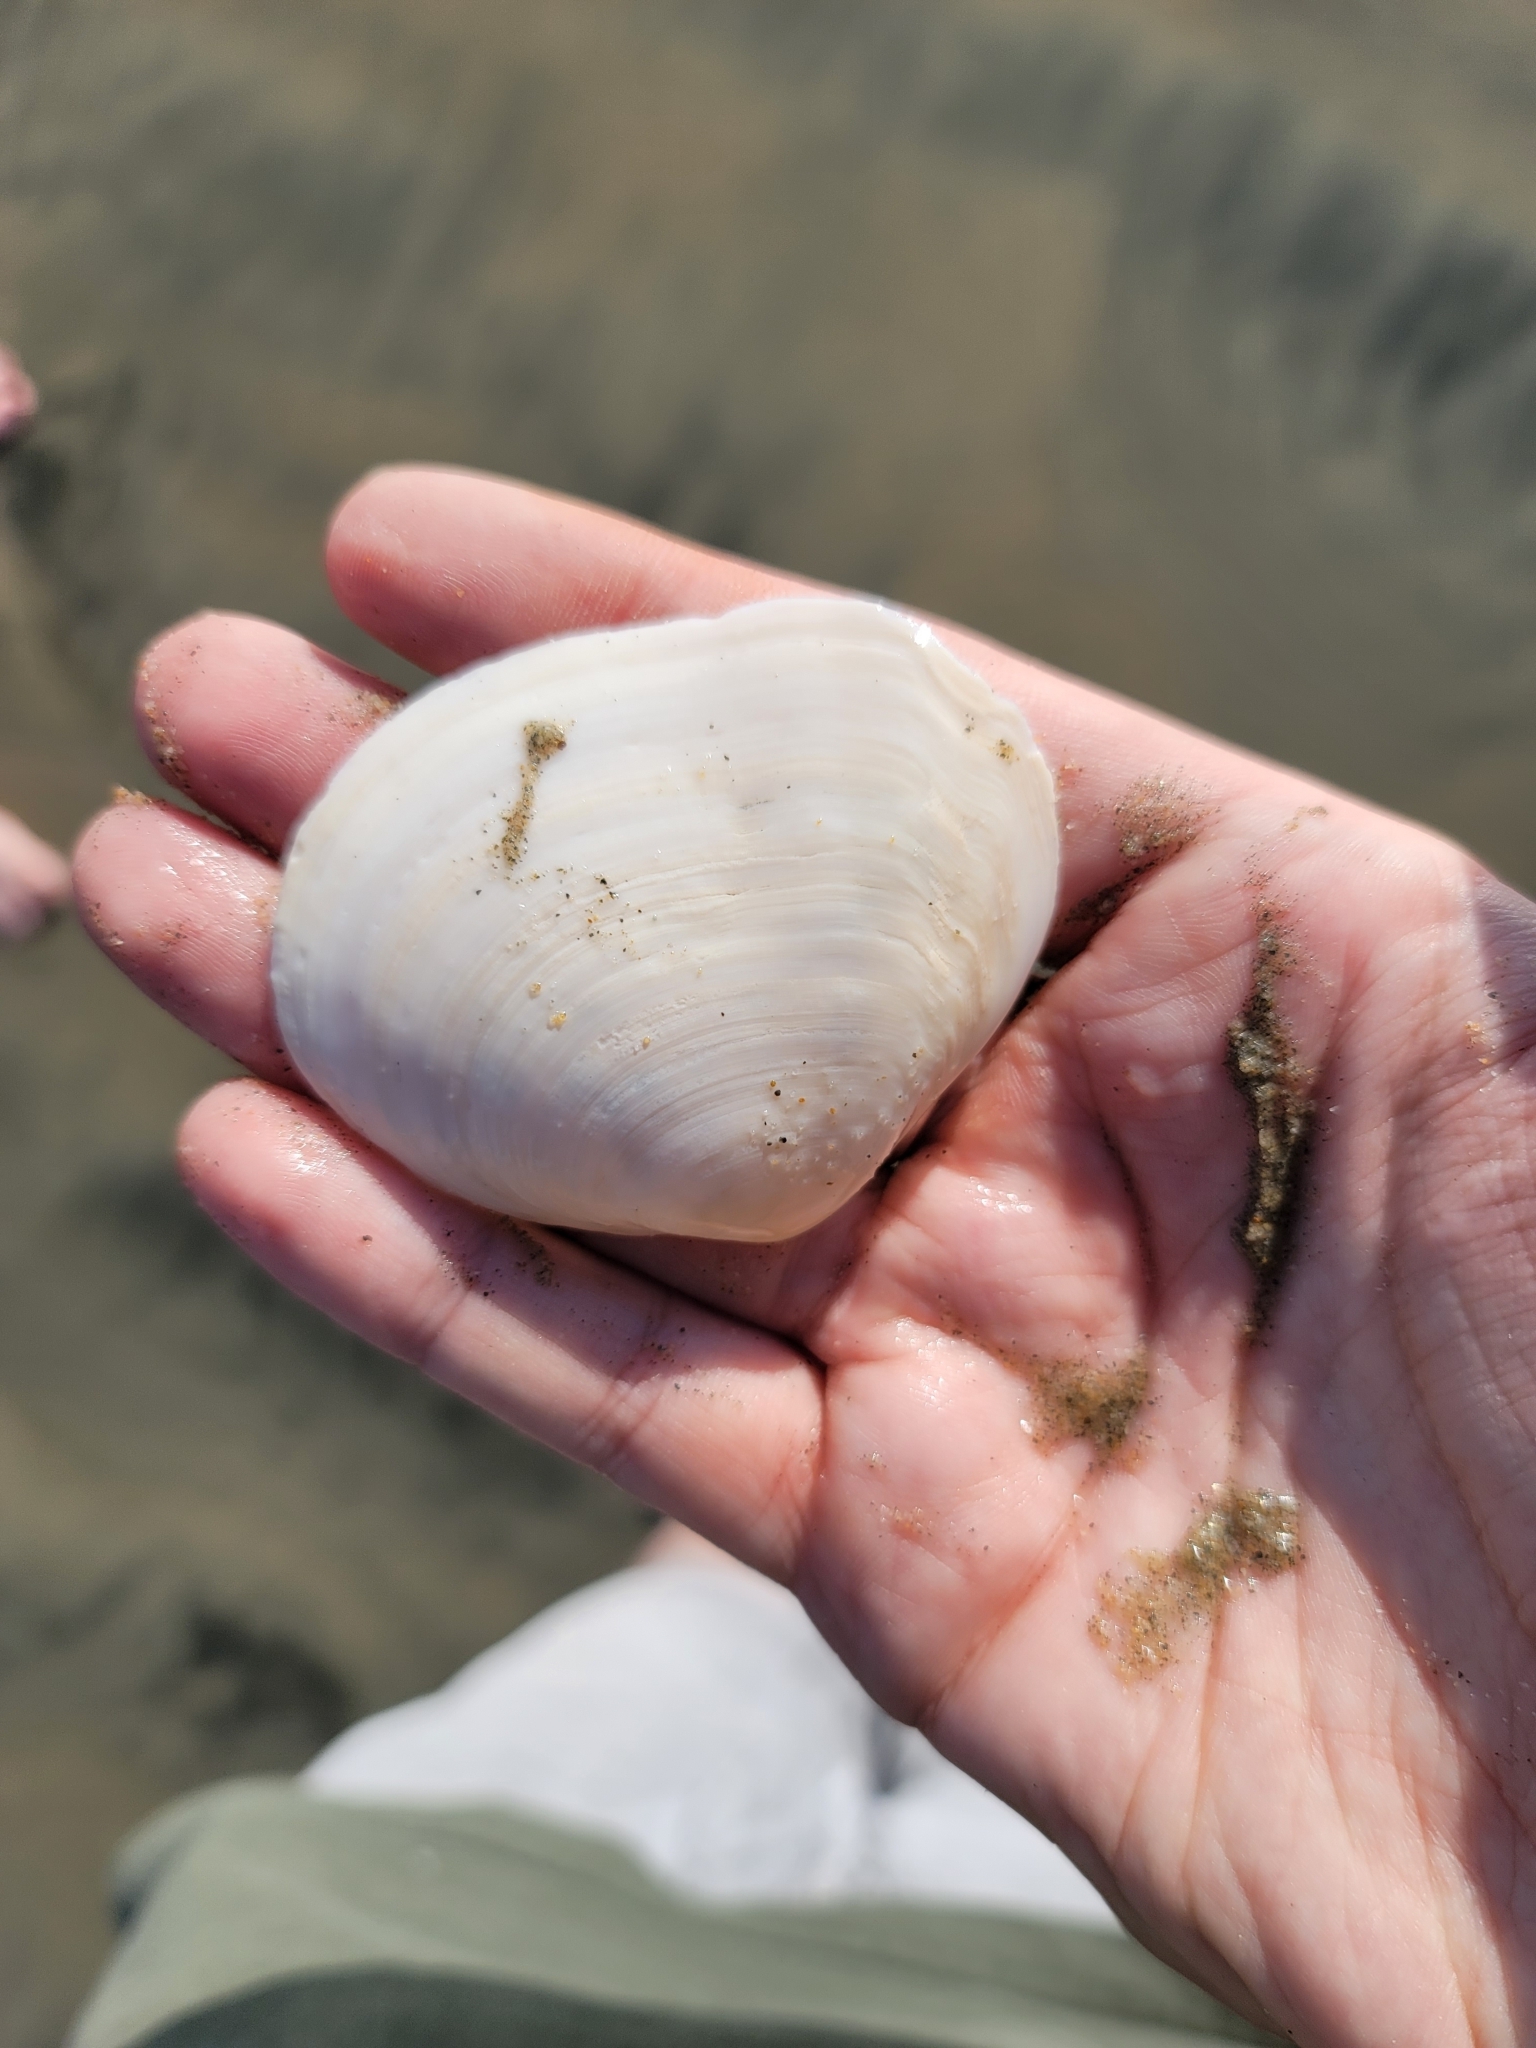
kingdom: Animalia
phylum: Mollusca
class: Bivalvia
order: Cardiida
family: Tellinidae
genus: Leporimetis
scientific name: Leporimetis obesa
